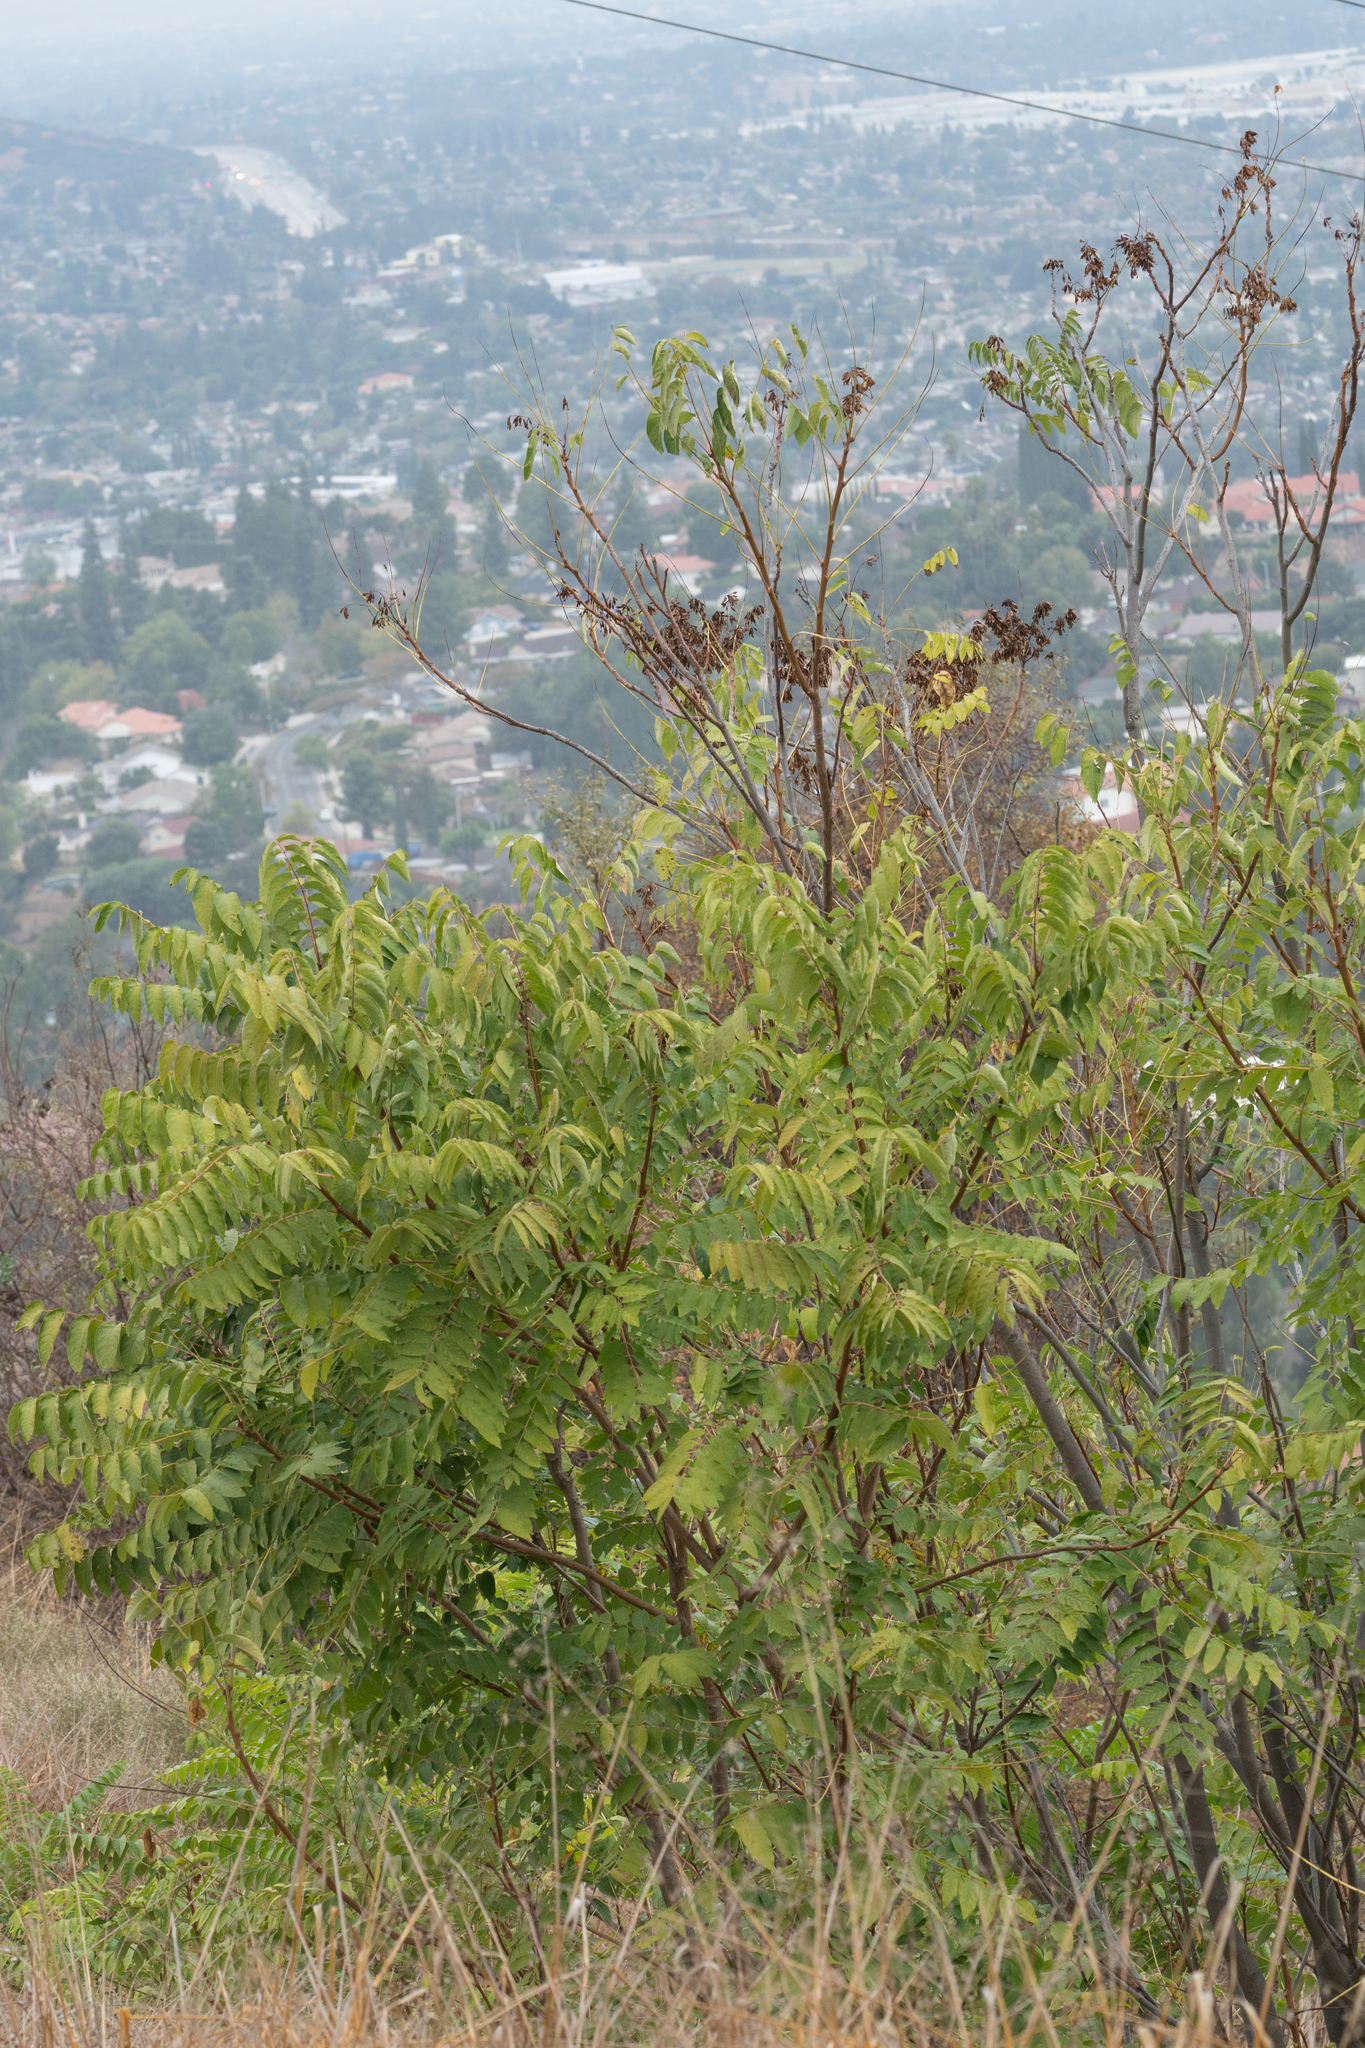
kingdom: Plantae
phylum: Tracheophyta
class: Magnoliopsida
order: Sapindales
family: Simaroubaceae
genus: Ailanthus
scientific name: Ailanthus altissima
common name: Tree-of-heaven
